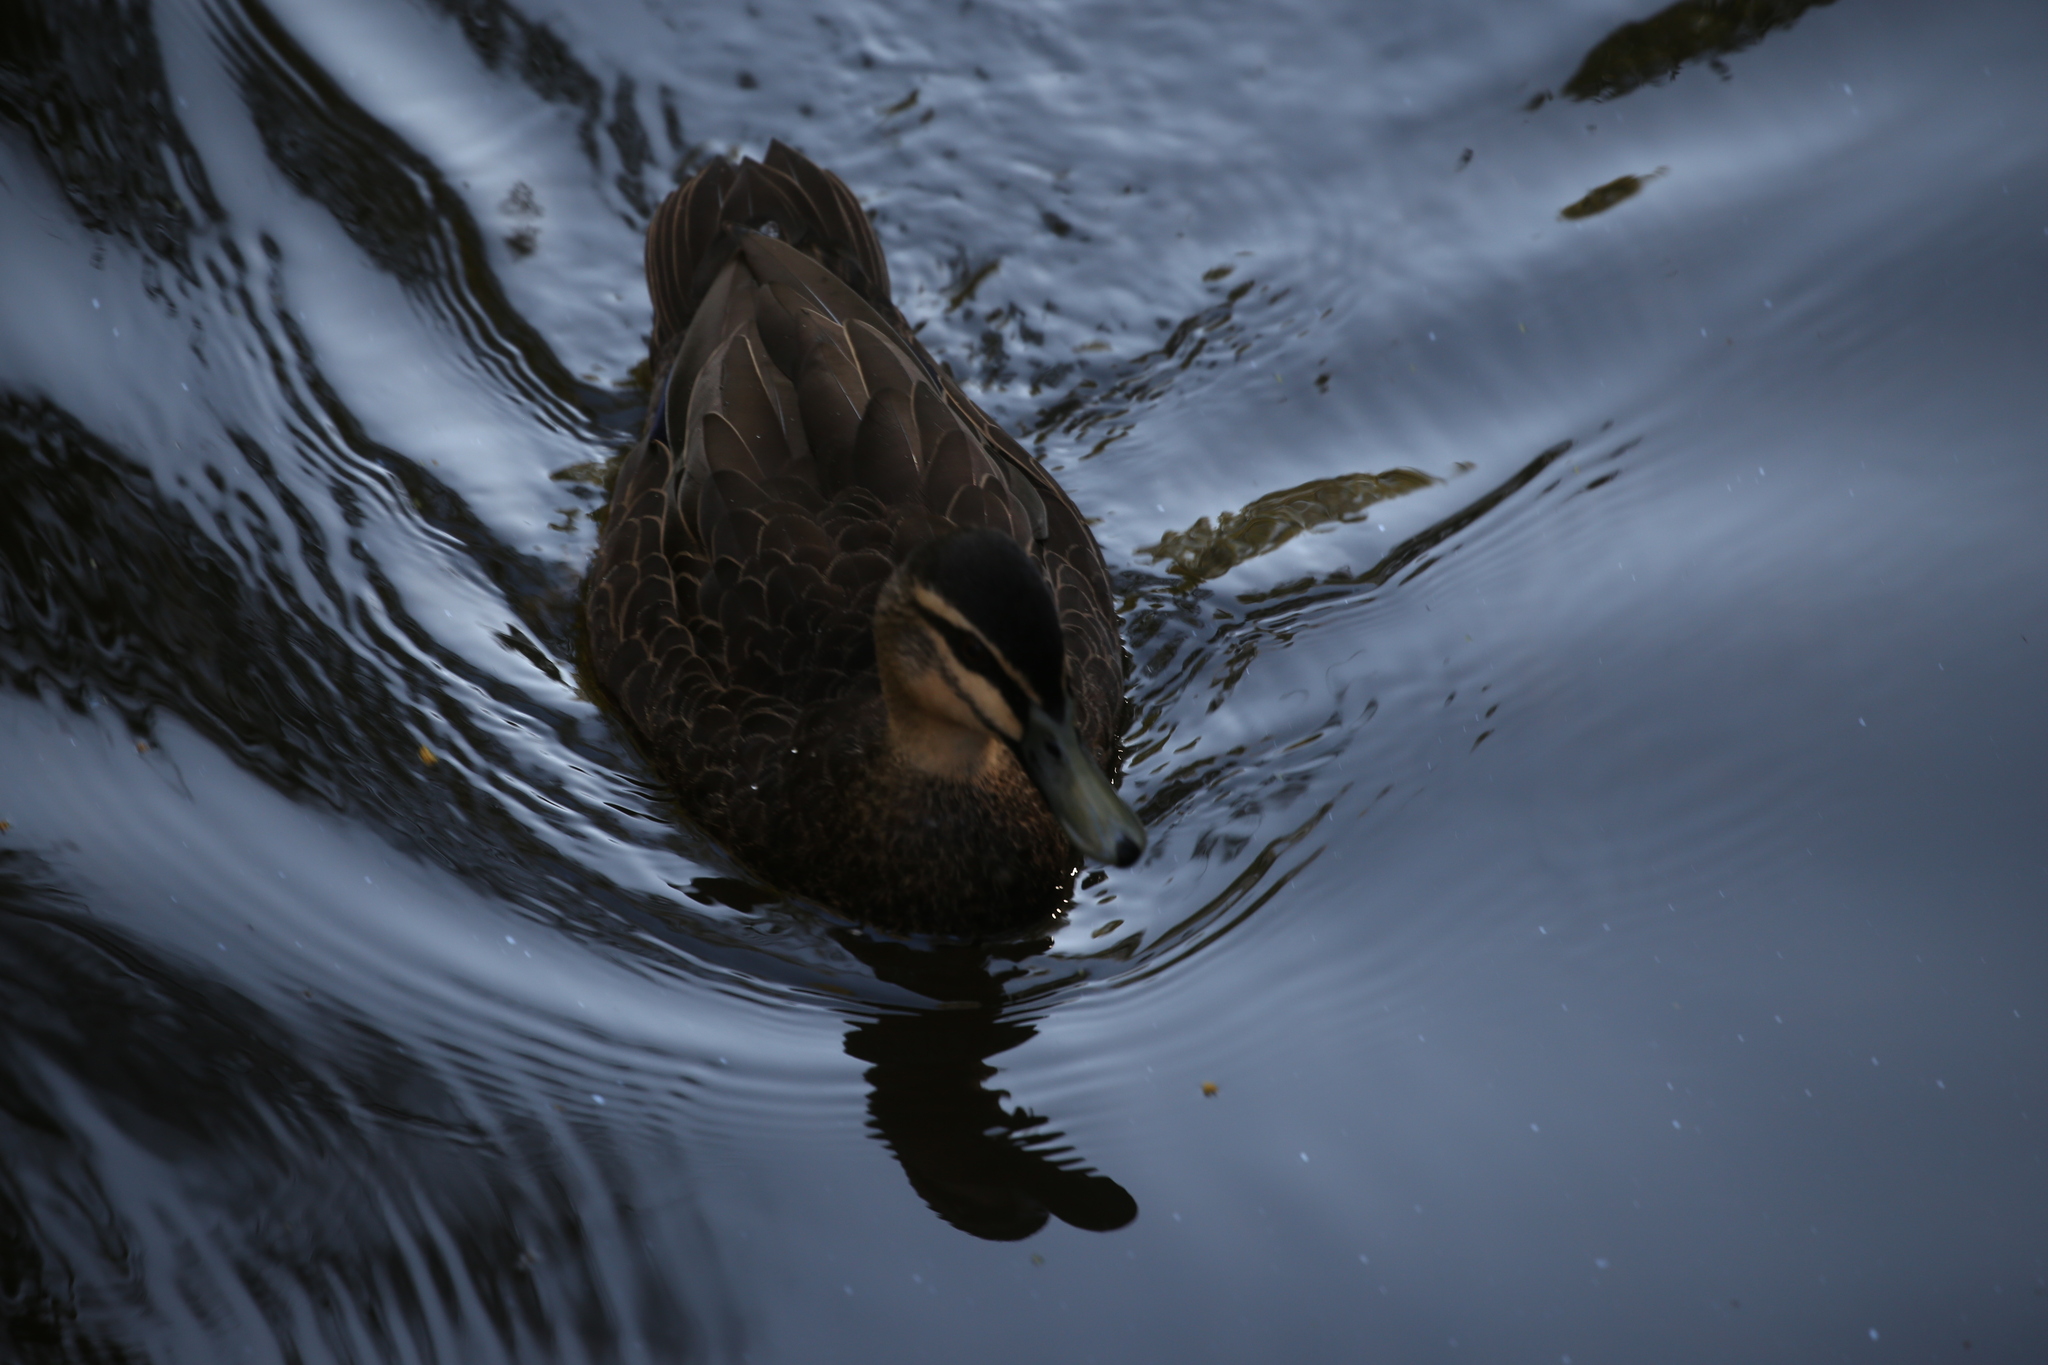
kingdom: Animalia
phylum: Chordata
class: Aves
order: Anseriformes
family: Anatidae
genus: Anas
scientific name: Anas superciliosa
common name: Pacific black duck
